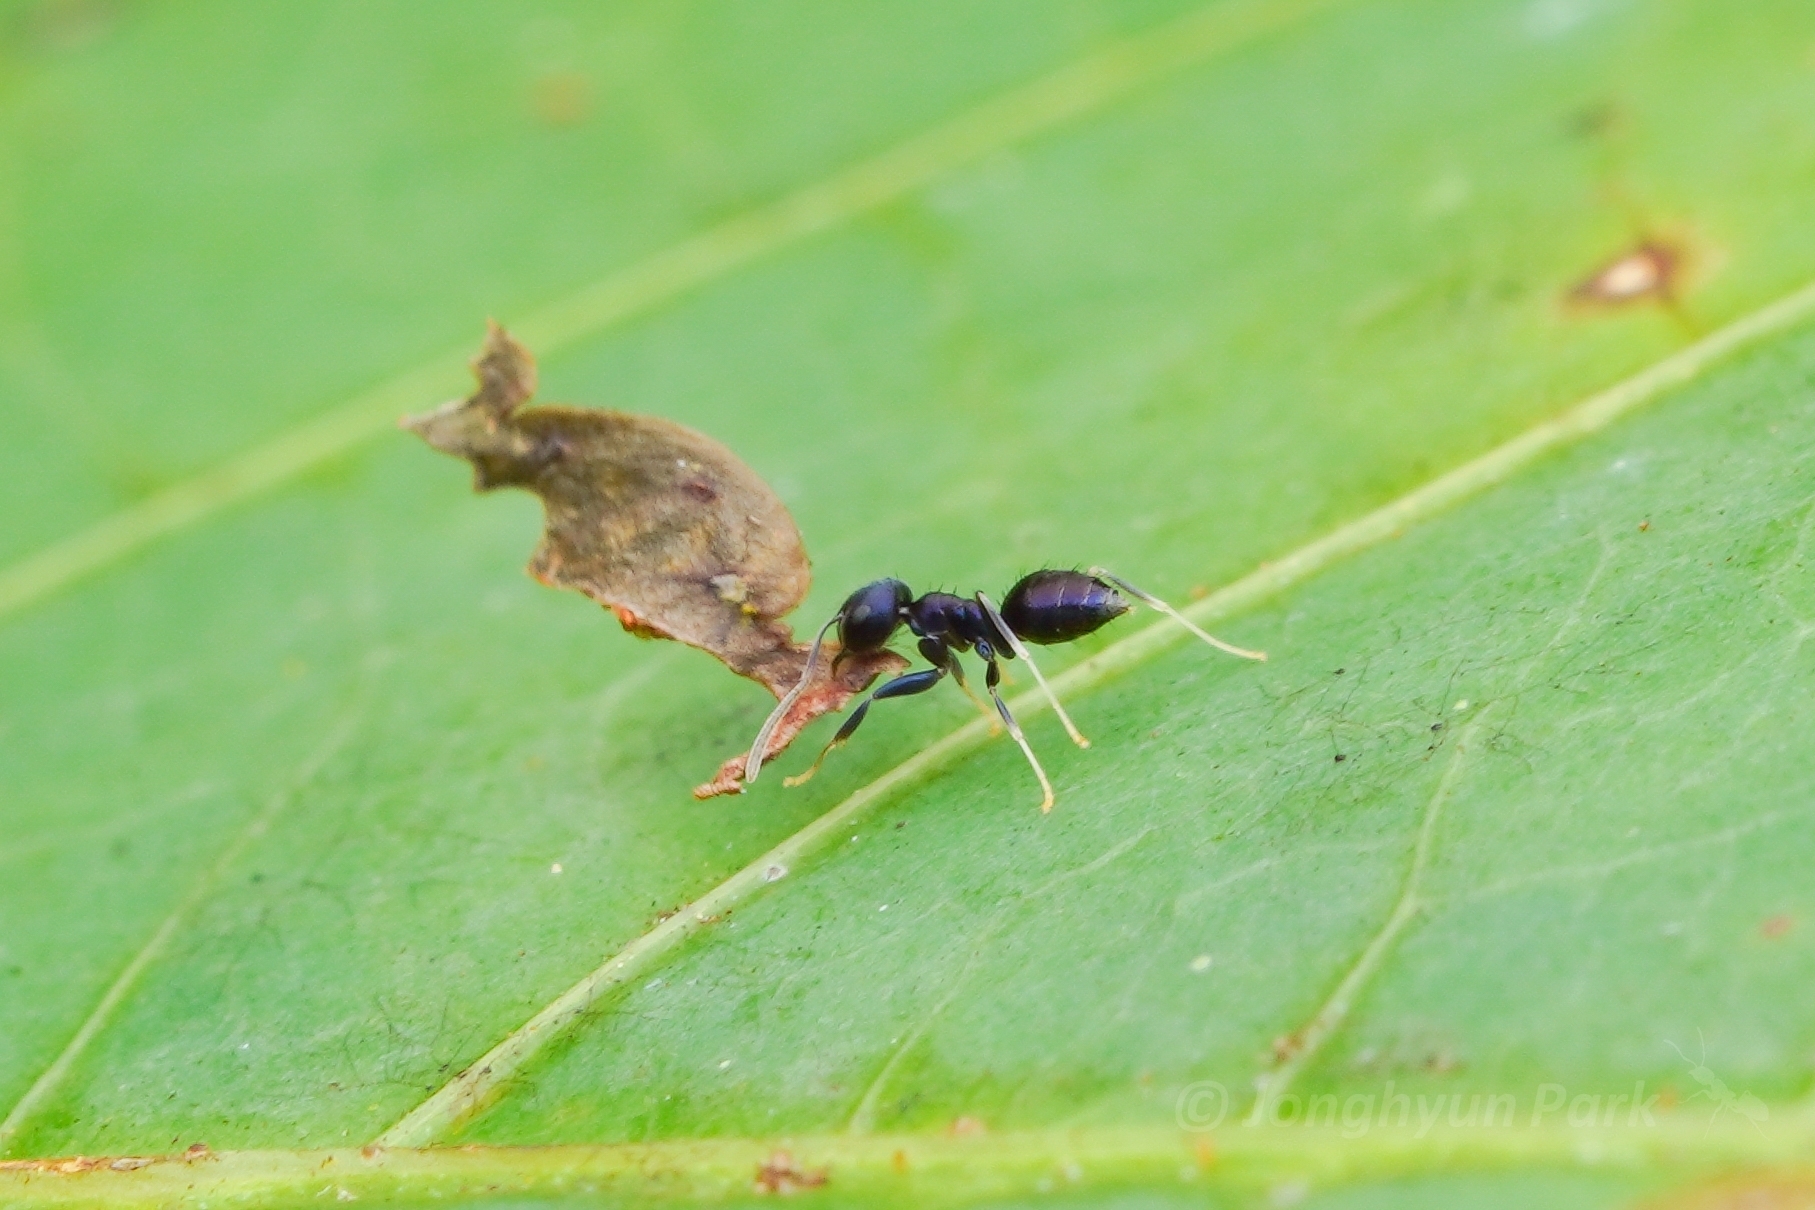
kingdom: Animalia
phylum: Arthropoda
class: Insecta
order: Hymenoptera
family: Formicidae
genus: Paraparatrechina
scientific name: Paraparatrechina
